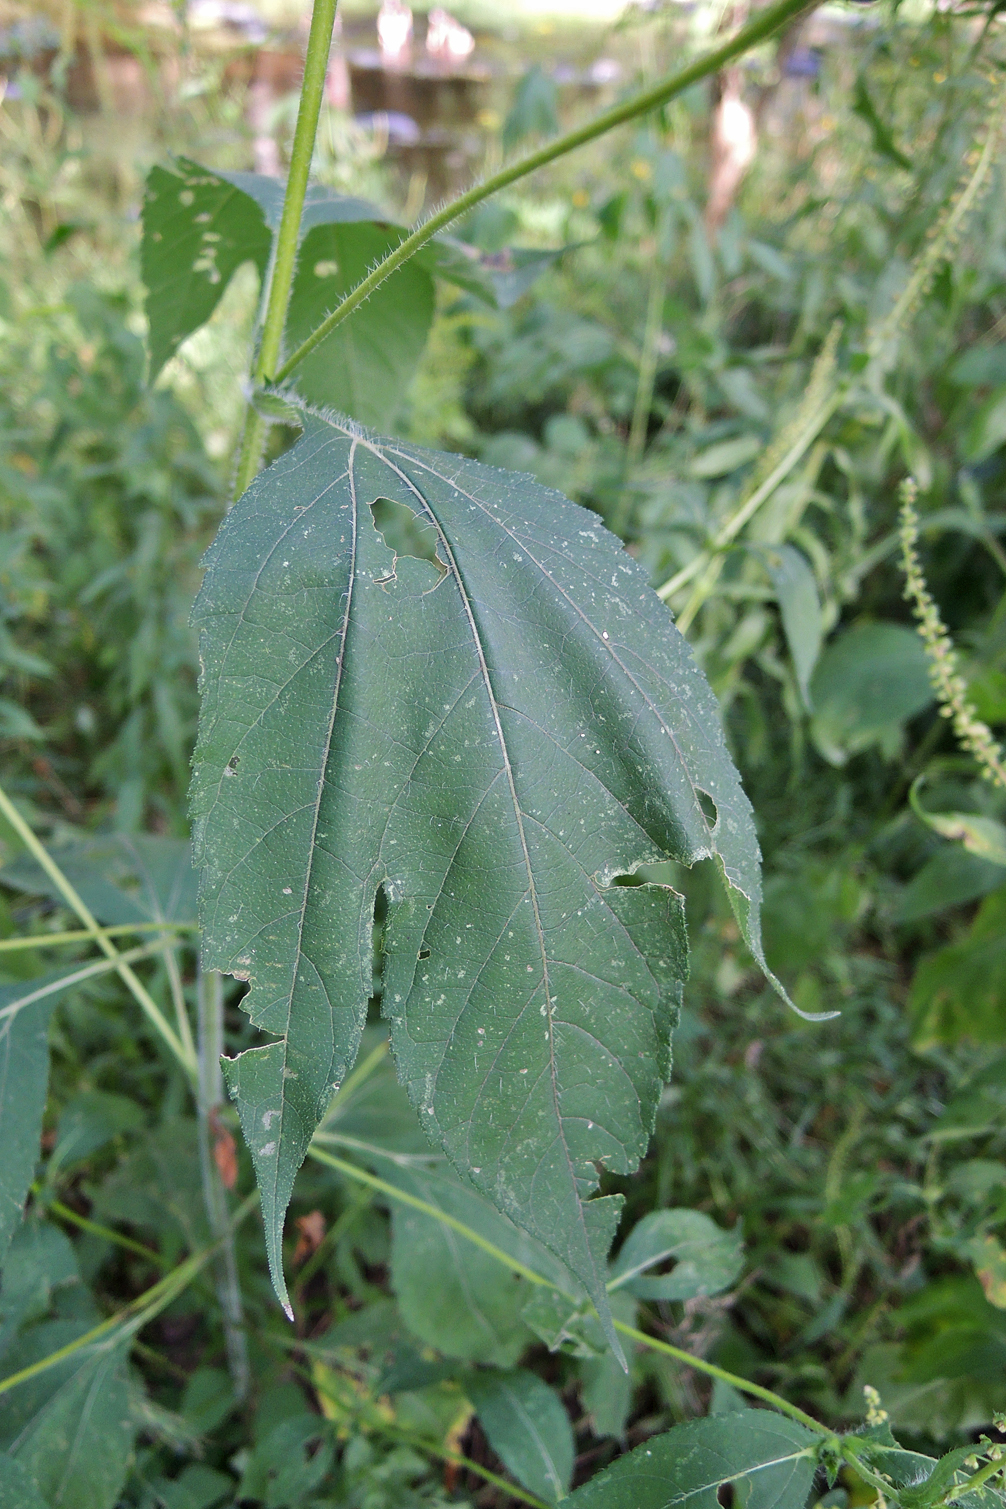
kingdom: Plantae
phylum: Tracheophyta
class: Magnoliopsida
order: Asterales
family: Asteraceae
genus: Ambrosia
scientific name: Ambrosia trifida
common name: Giant ragweed
